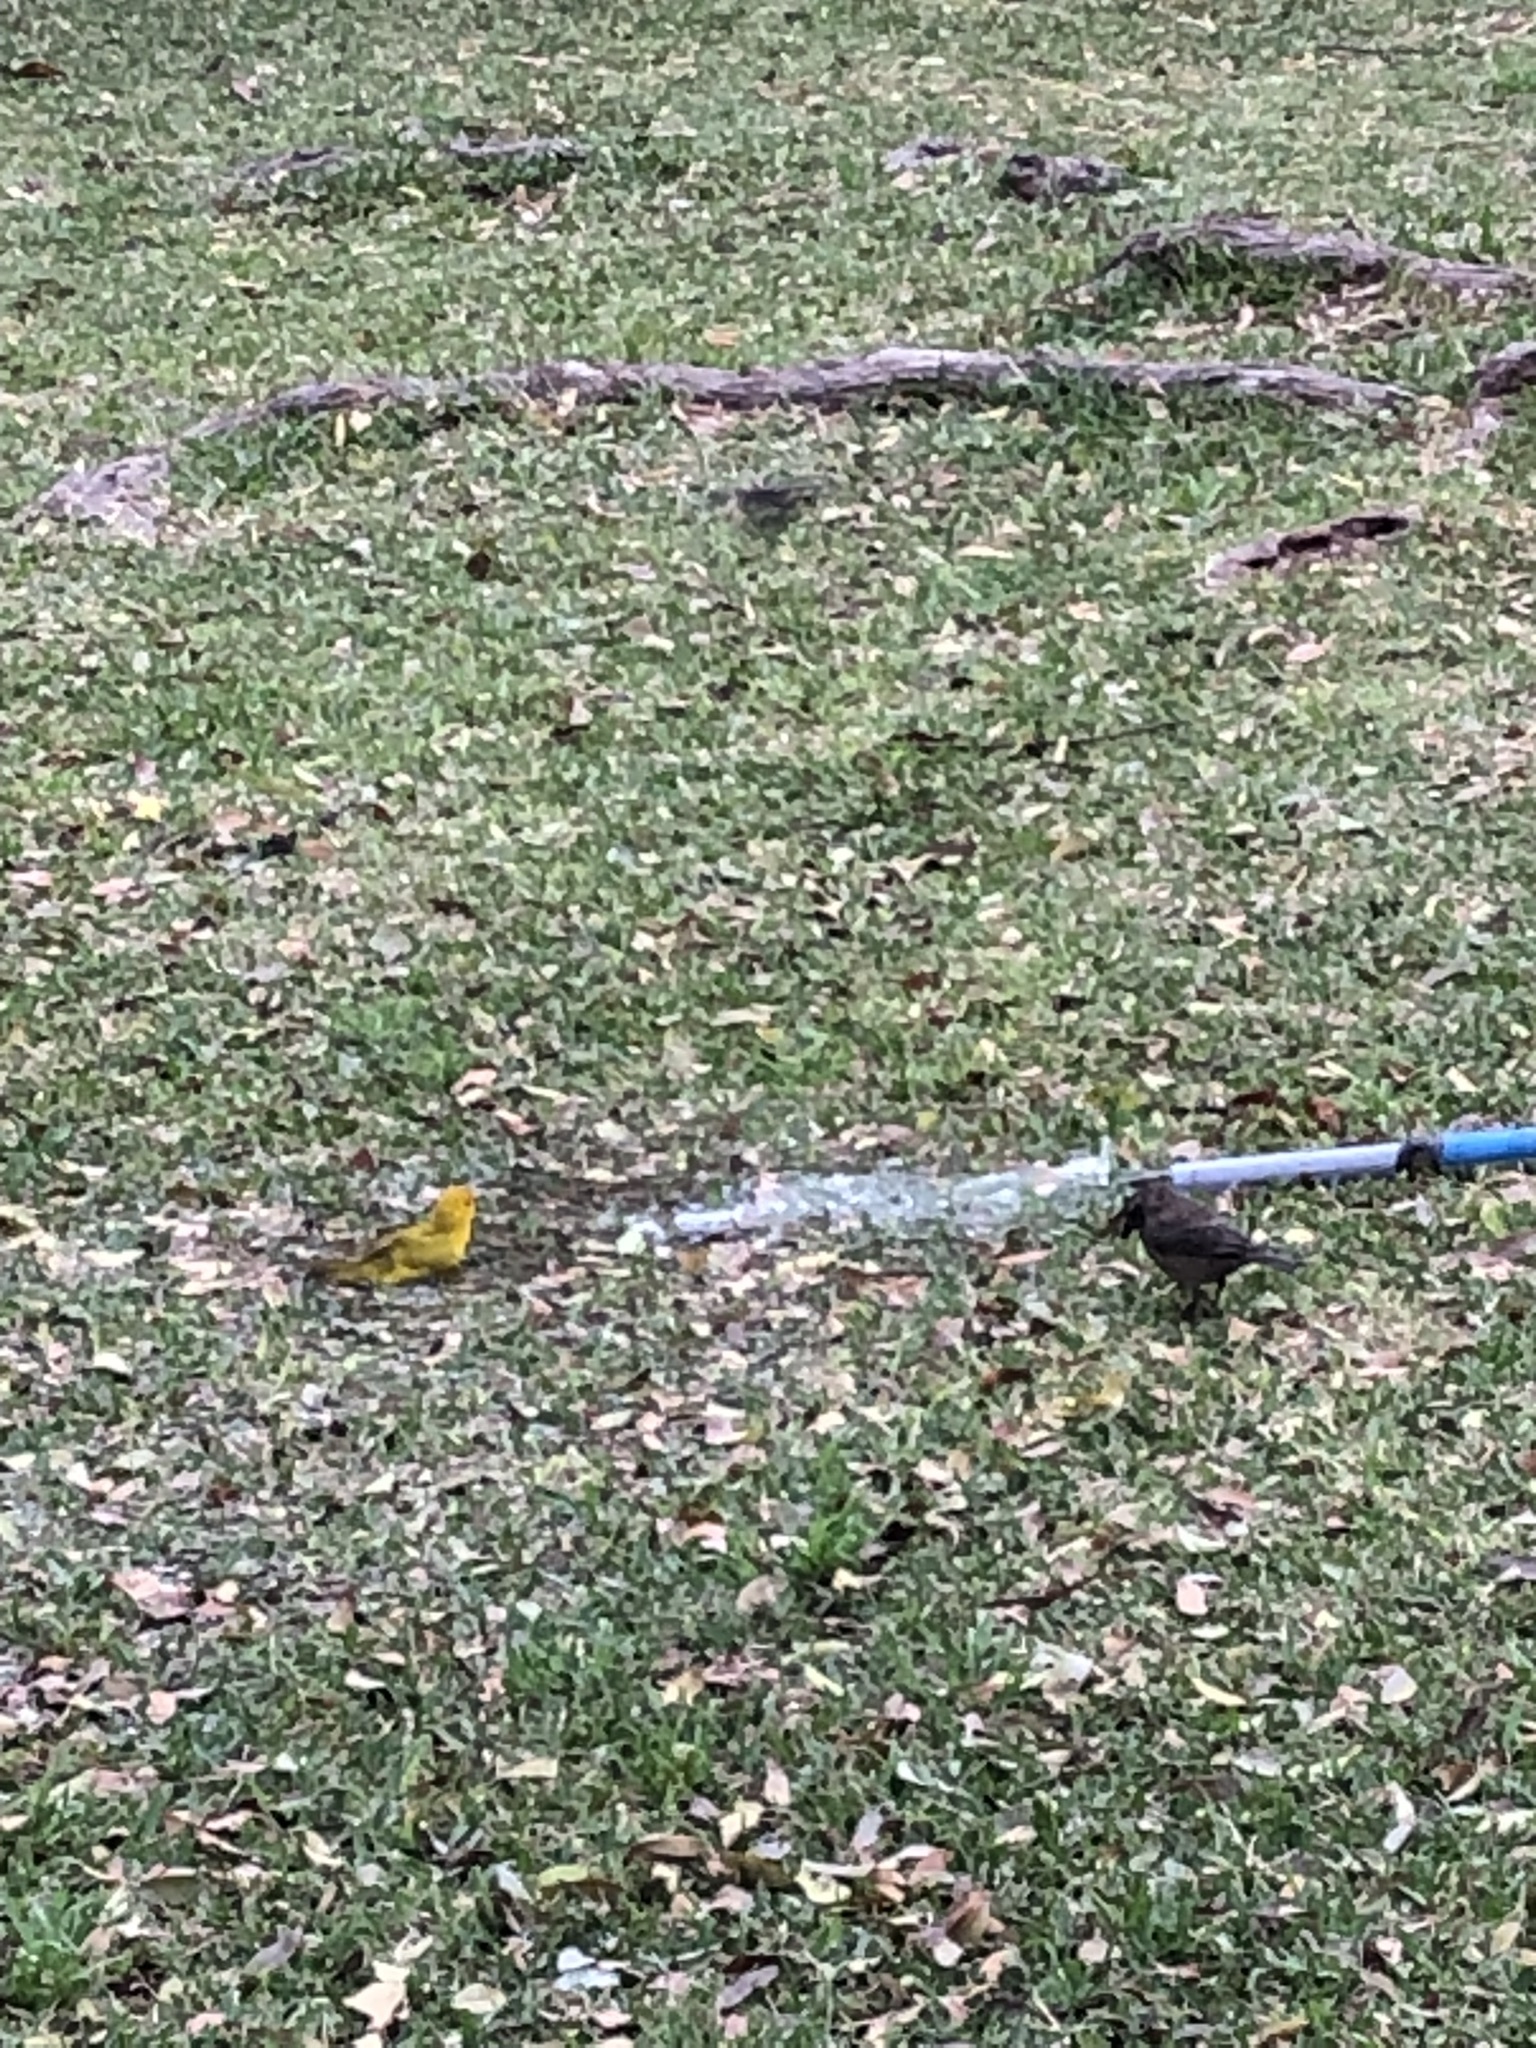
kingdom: Animalia
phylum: Chordata
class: Aves
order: Passeriformes
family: Thraupidae
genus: Sicalis
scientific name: Sicalis flaveola
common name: Saffron finch
